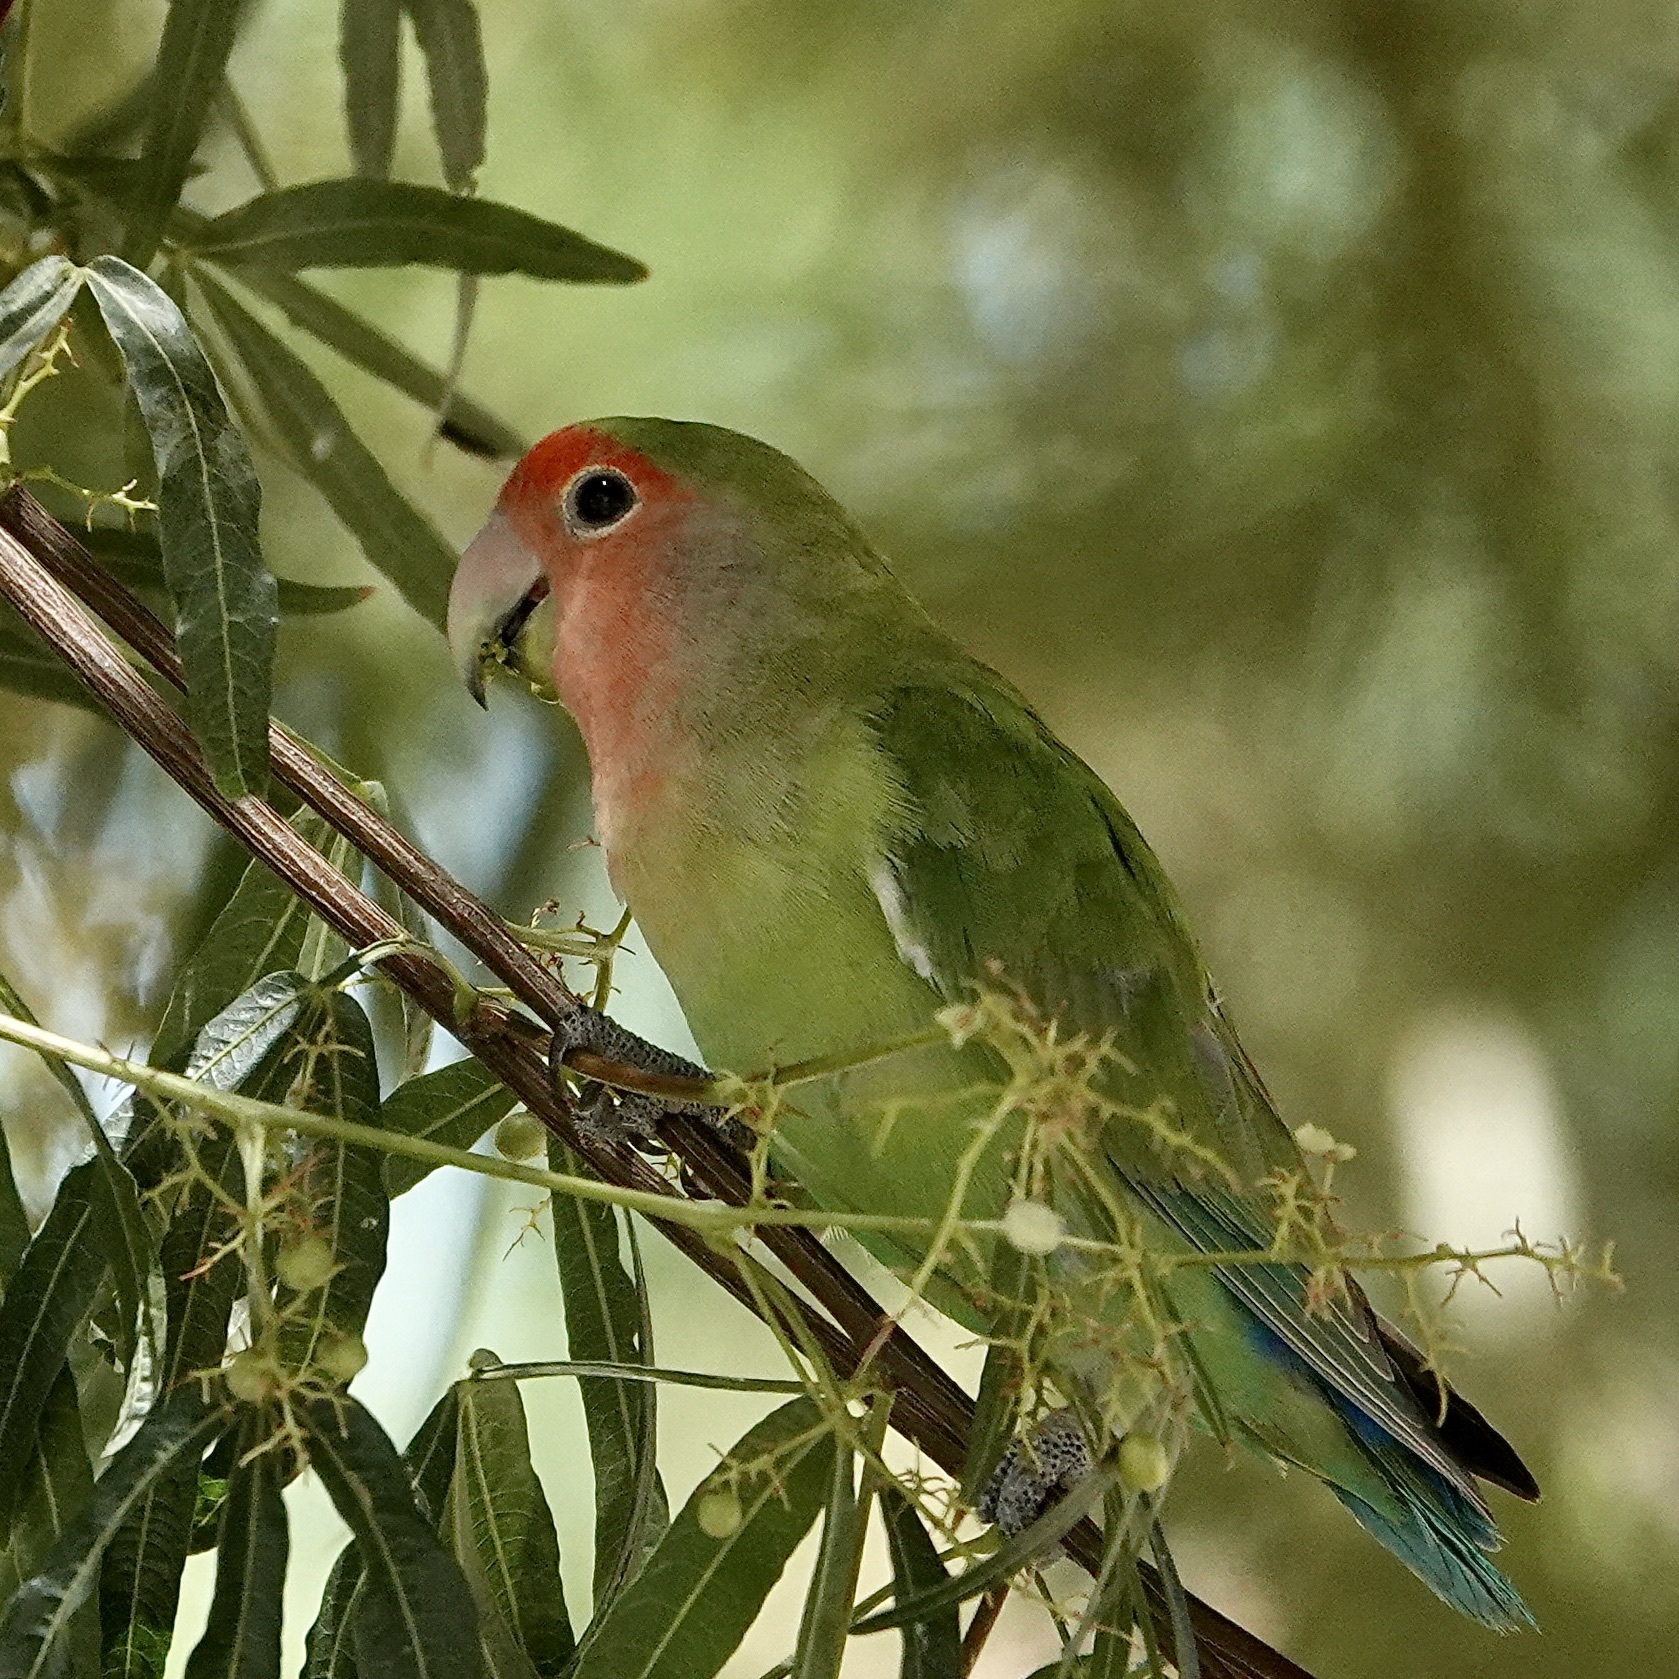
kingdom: Animalia
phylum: Chordata
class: Aves
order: Psittaciformes
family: Psittacidae
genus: Agapornis
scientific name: Agapornis roseicollis
